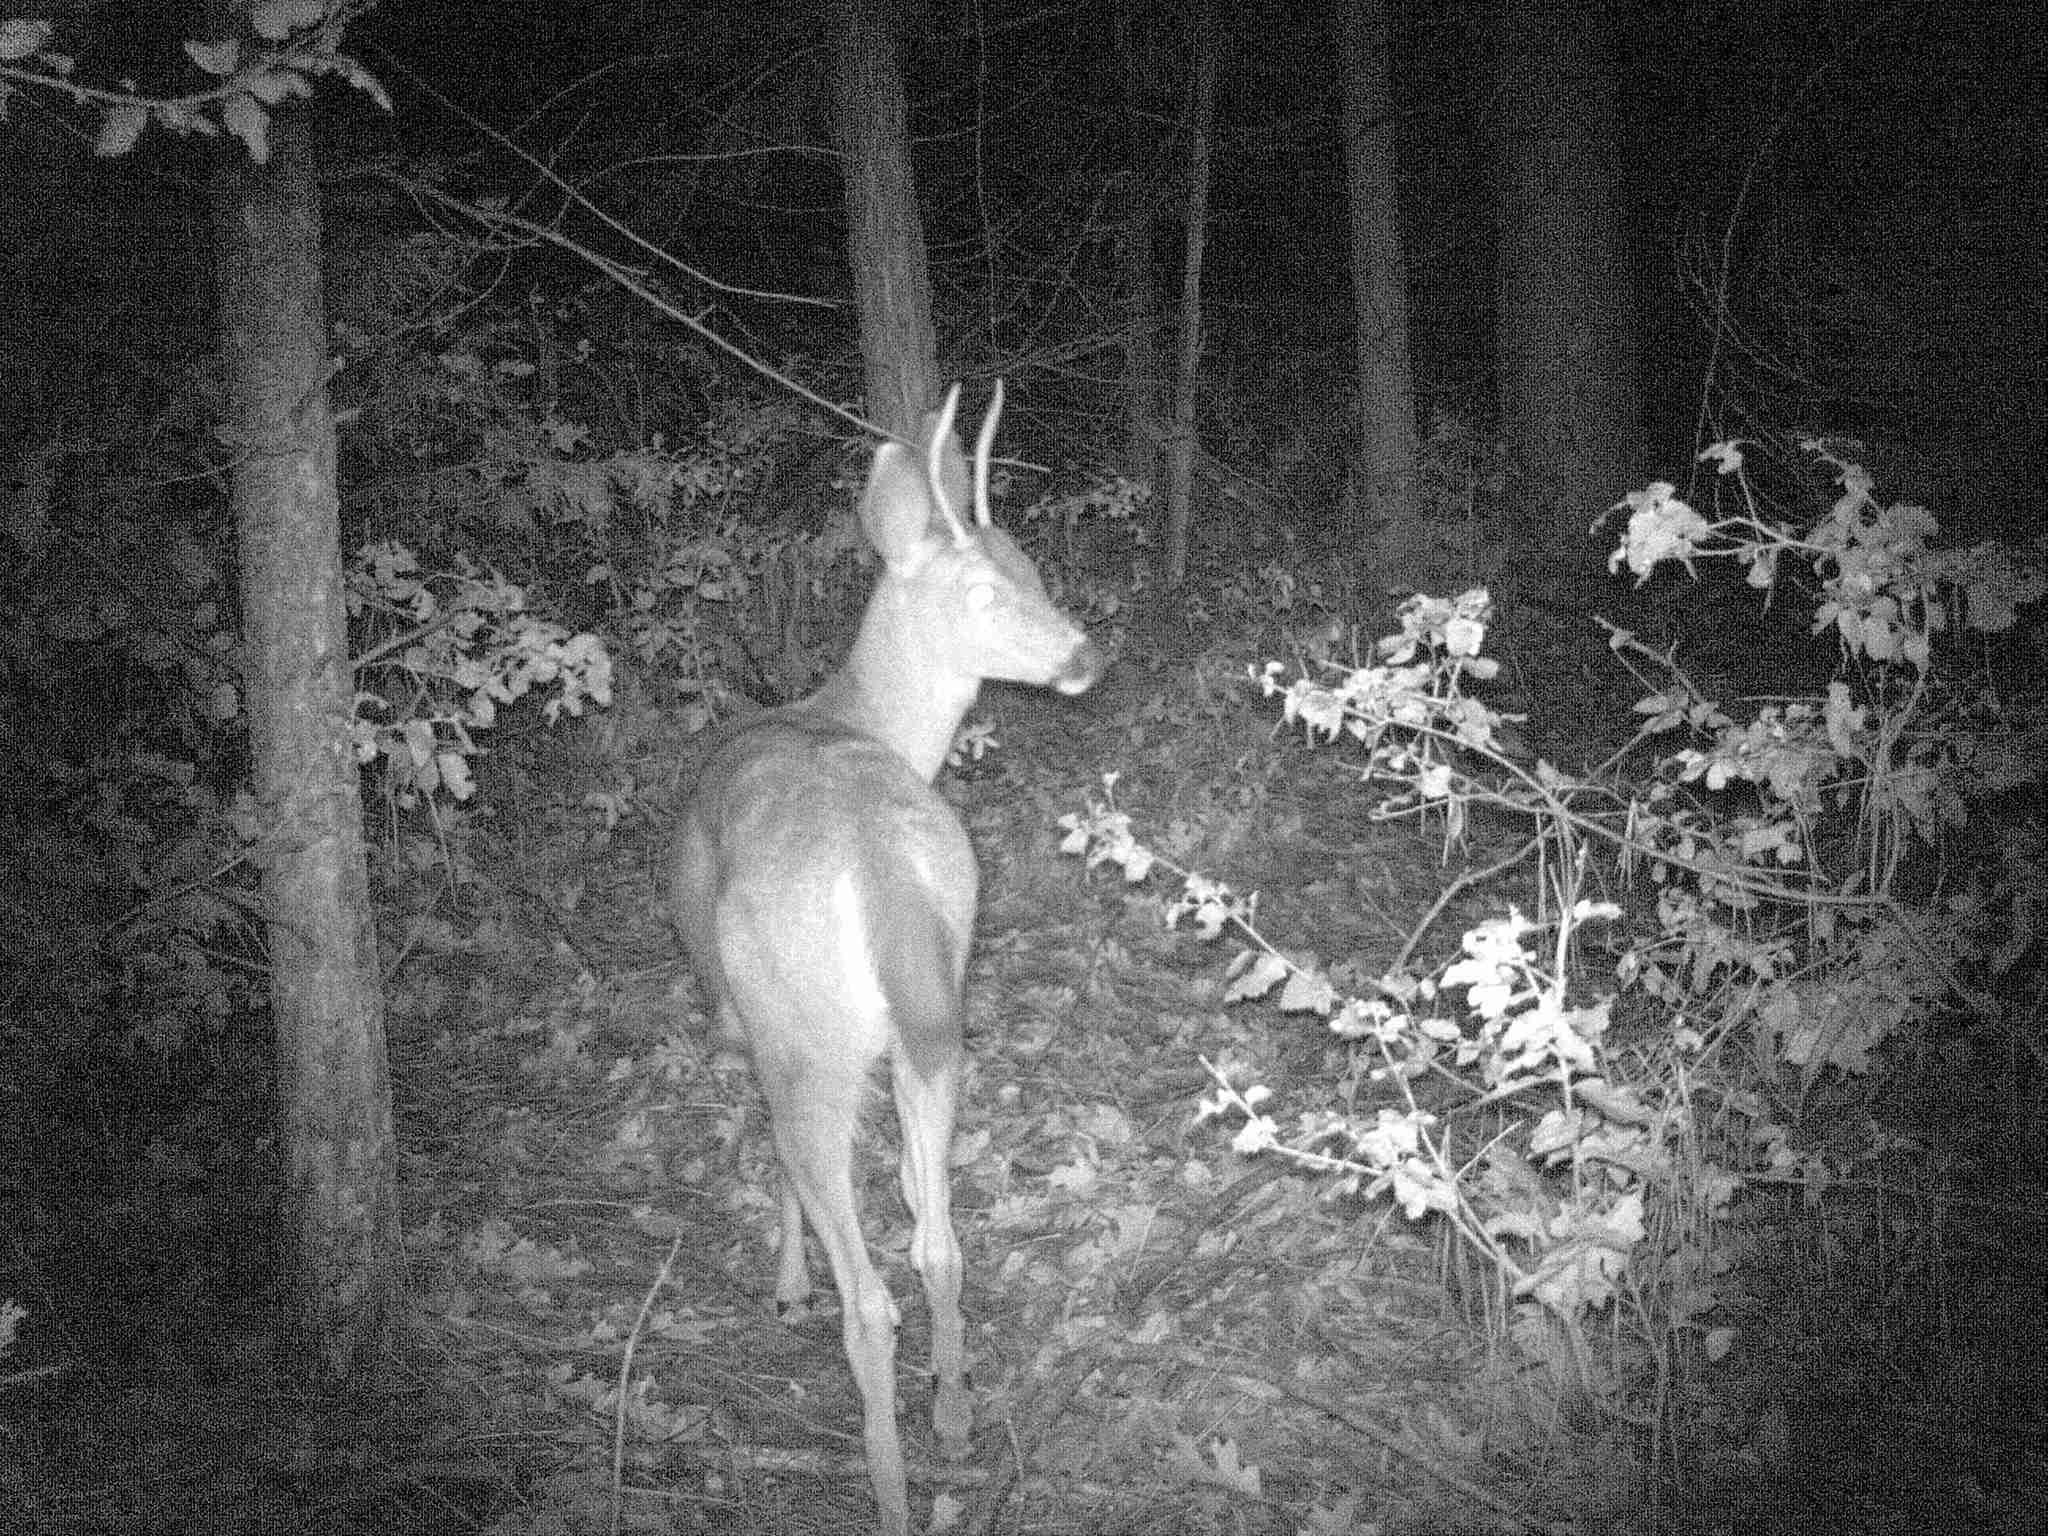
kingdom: Animalia
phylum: Chordata
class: Mammalia
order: Artiodactyla
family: Cervidae
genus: Odocoileus
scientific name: Odocoileus hemionus
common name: Mule deer
